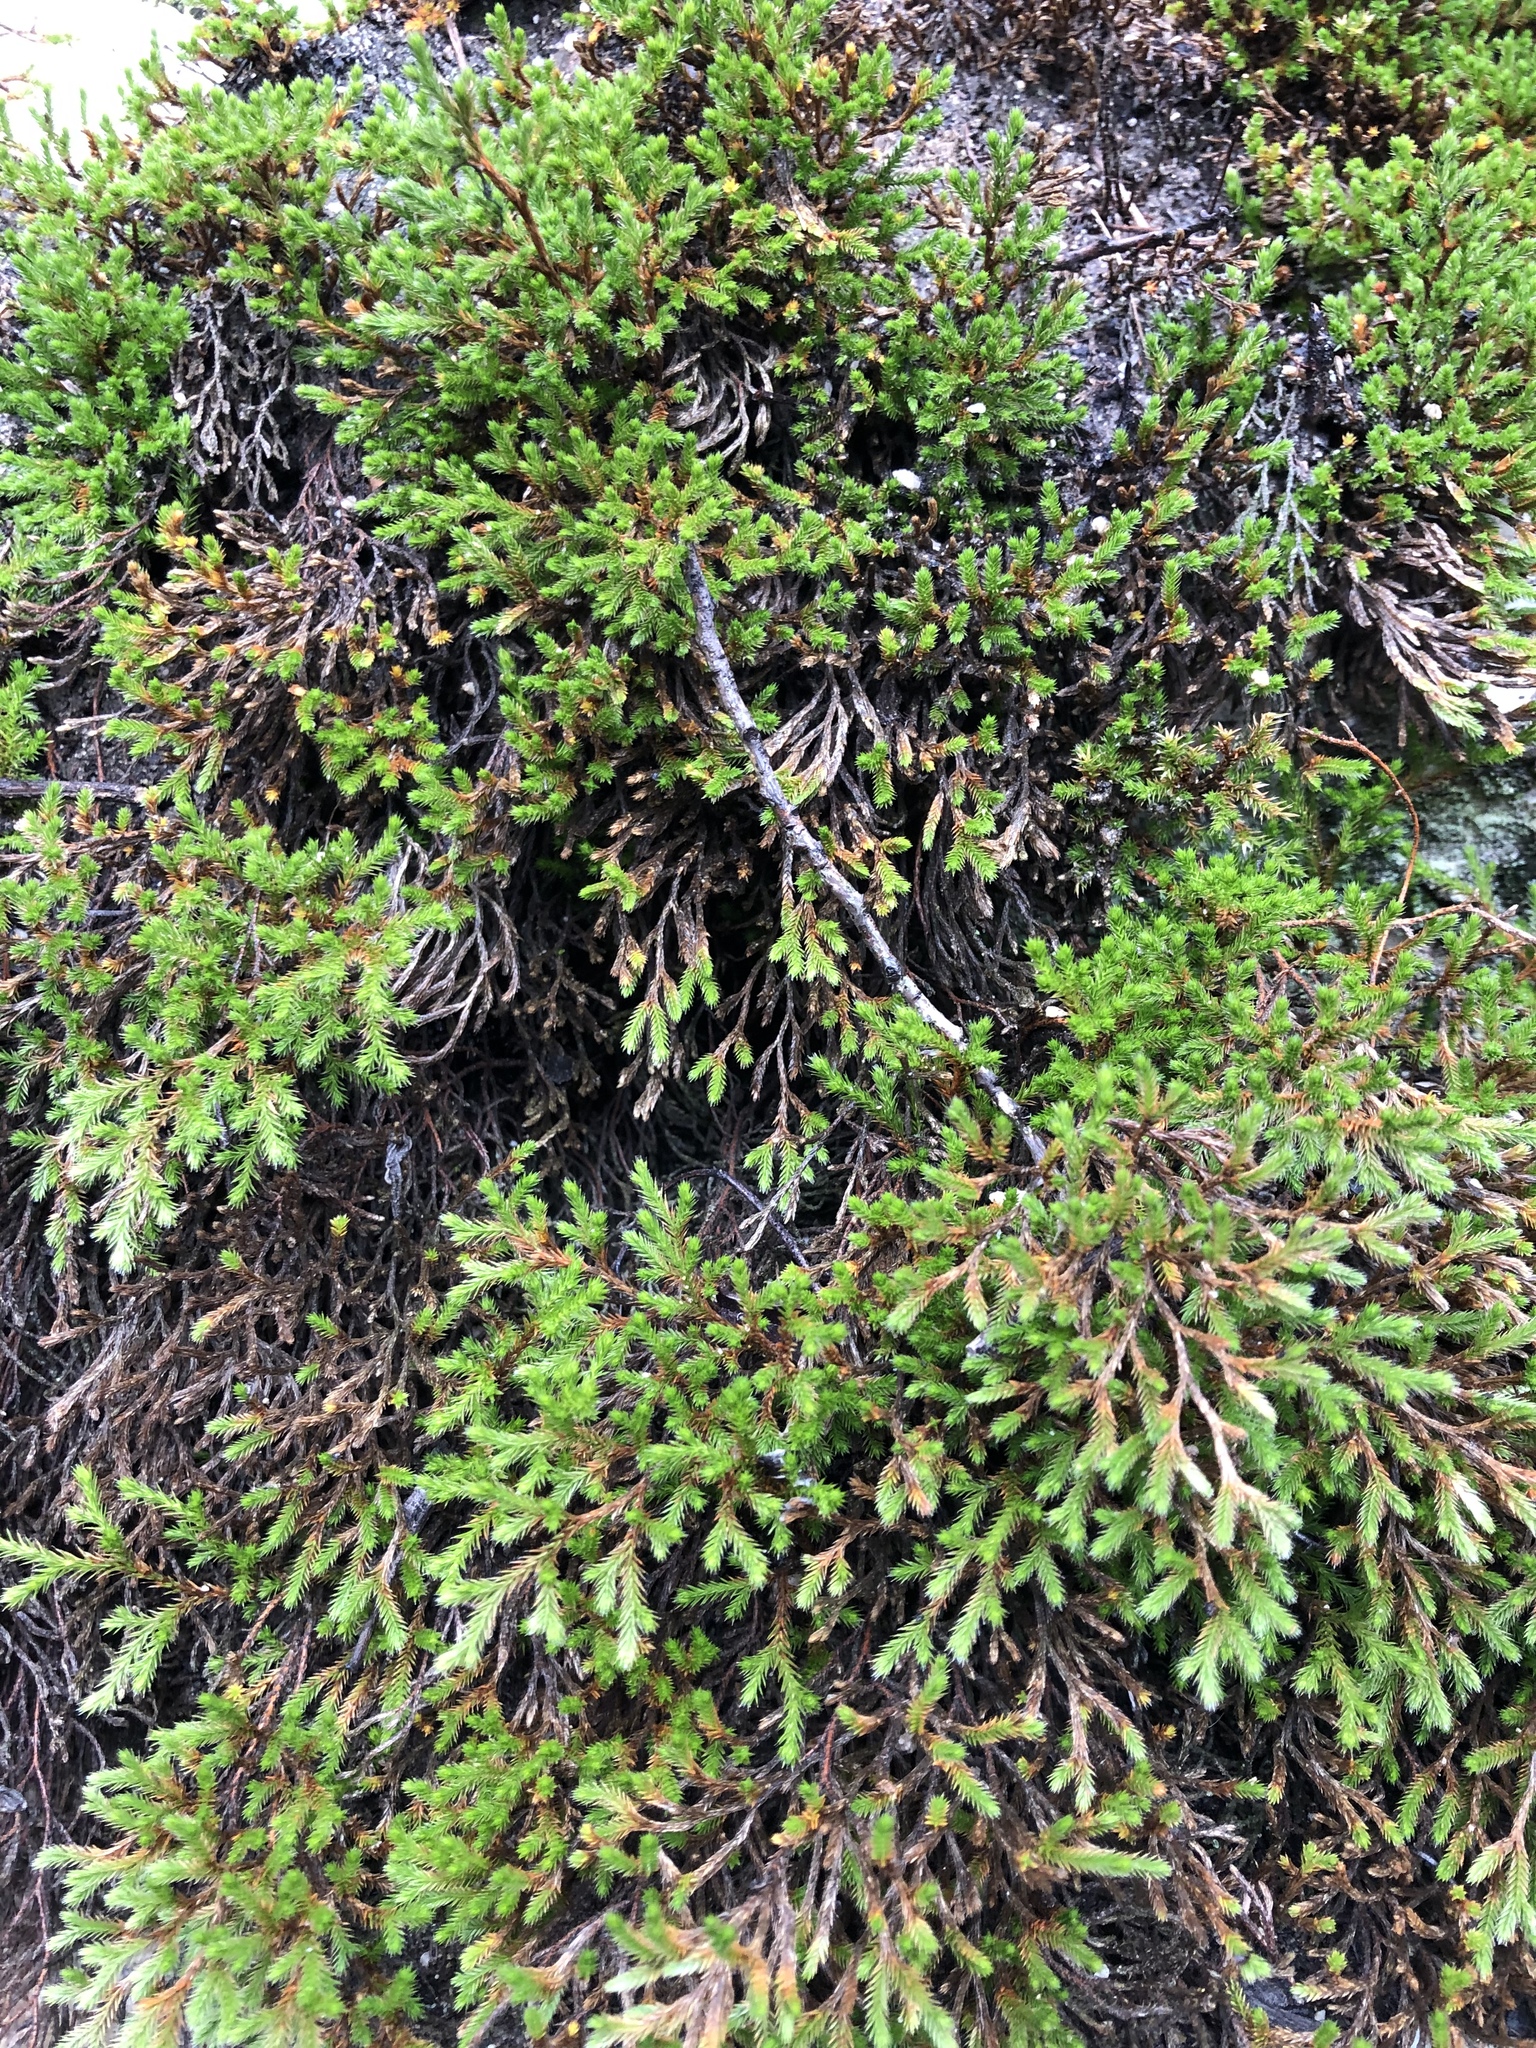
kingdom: Plantae
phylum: Tracheophyta
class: Lycopodiopsida
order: Selaginellales
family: Selaginellaceae
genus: Selaginella
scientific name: Selaginella bigelovii
